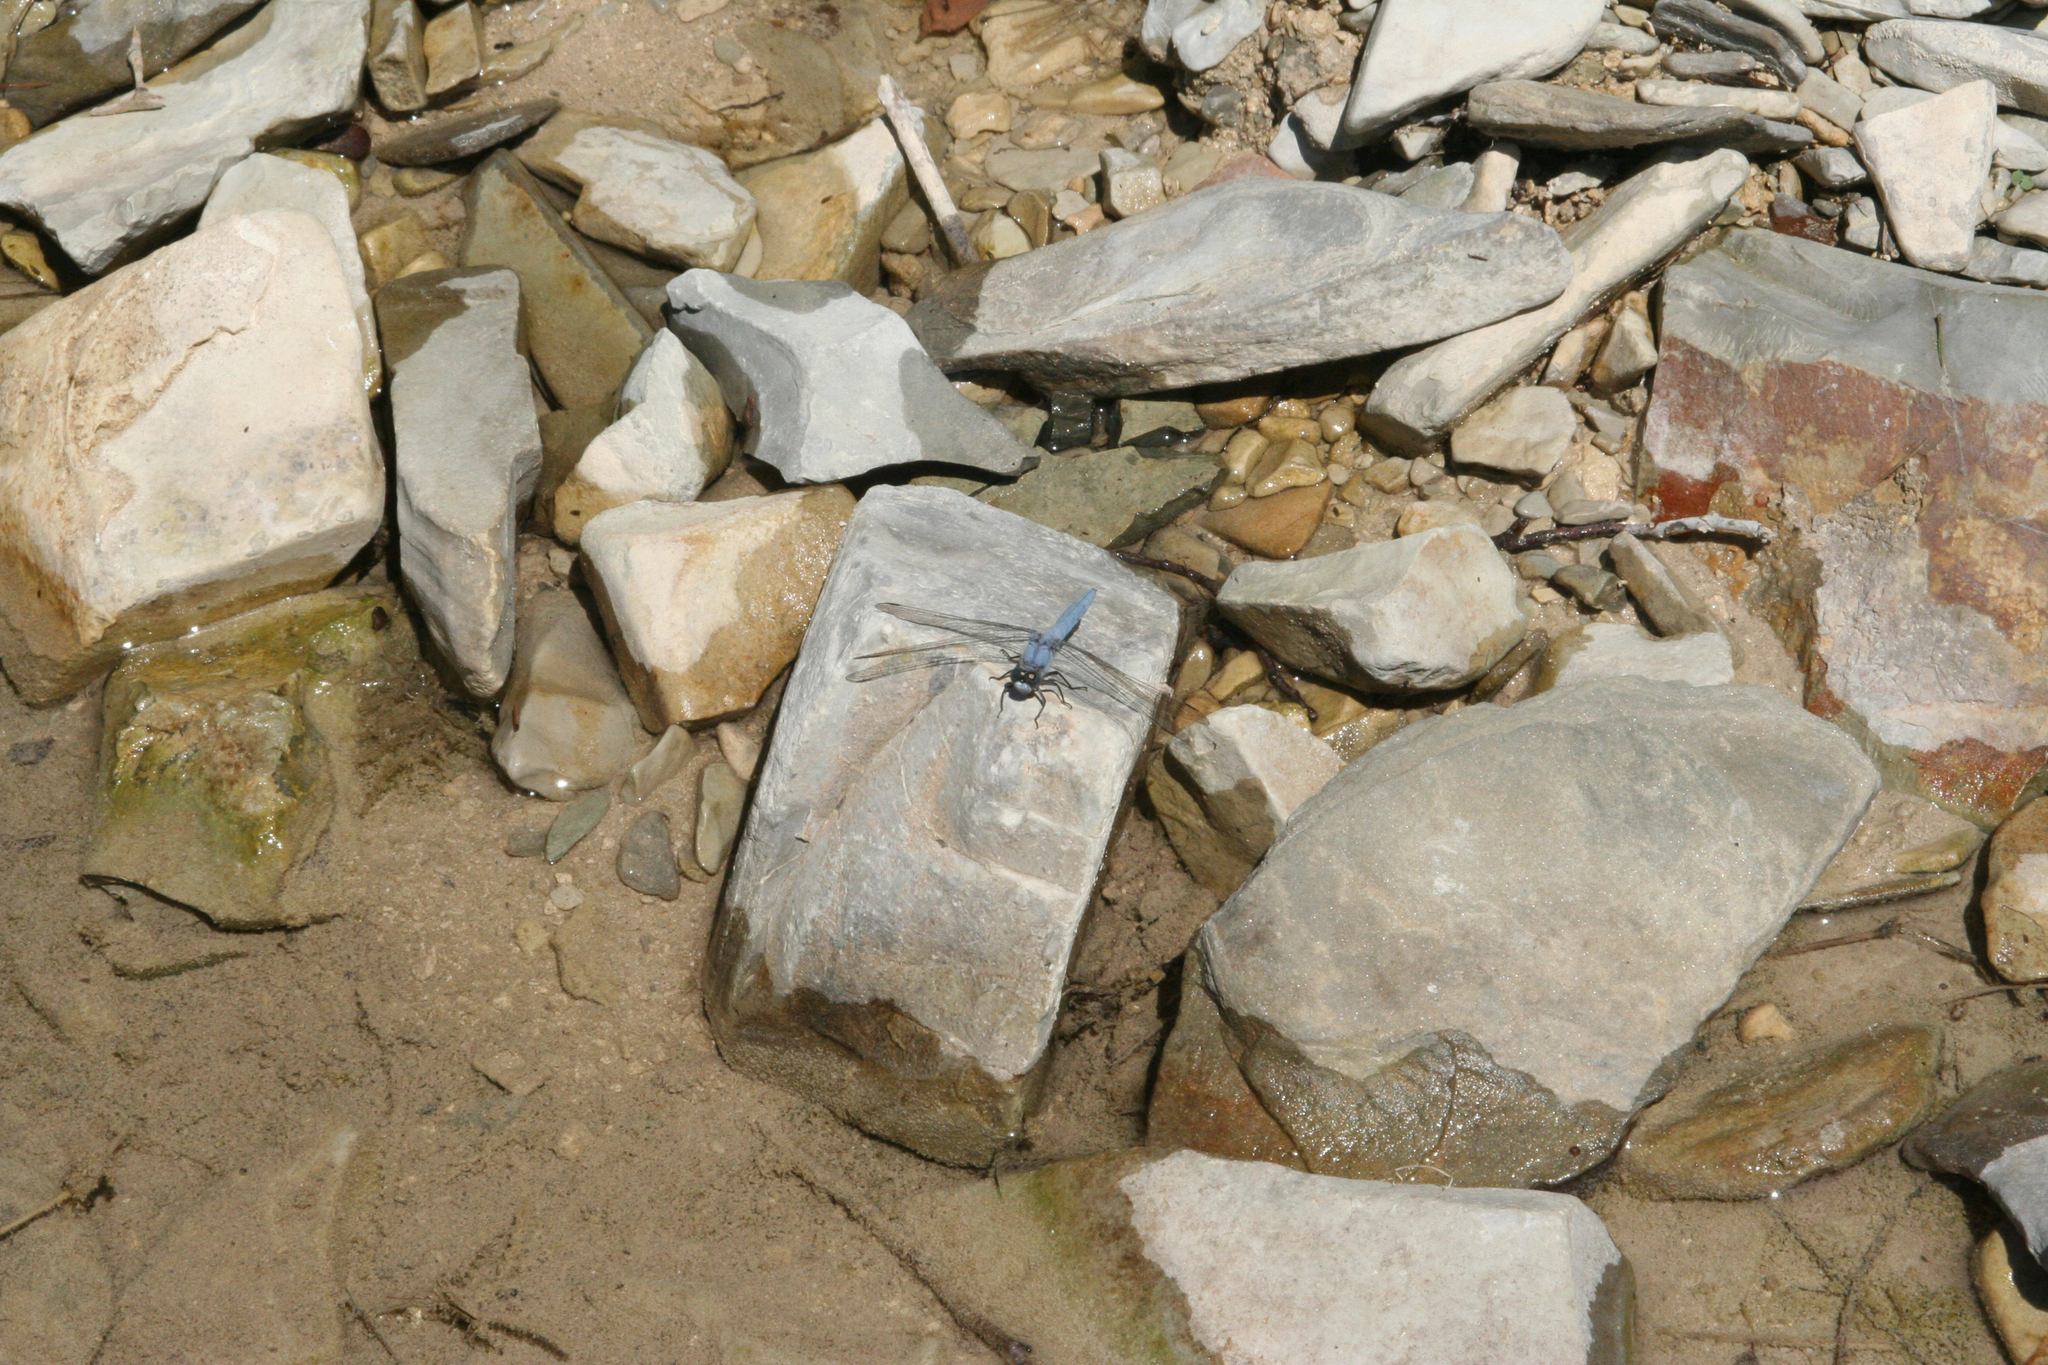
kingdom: Animalia
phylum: Arthropoda
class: Insecta
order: Odonata
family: Libellulidae
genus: Orthetrum
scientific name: Orthetrum brunneum
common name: Southern skimmer
